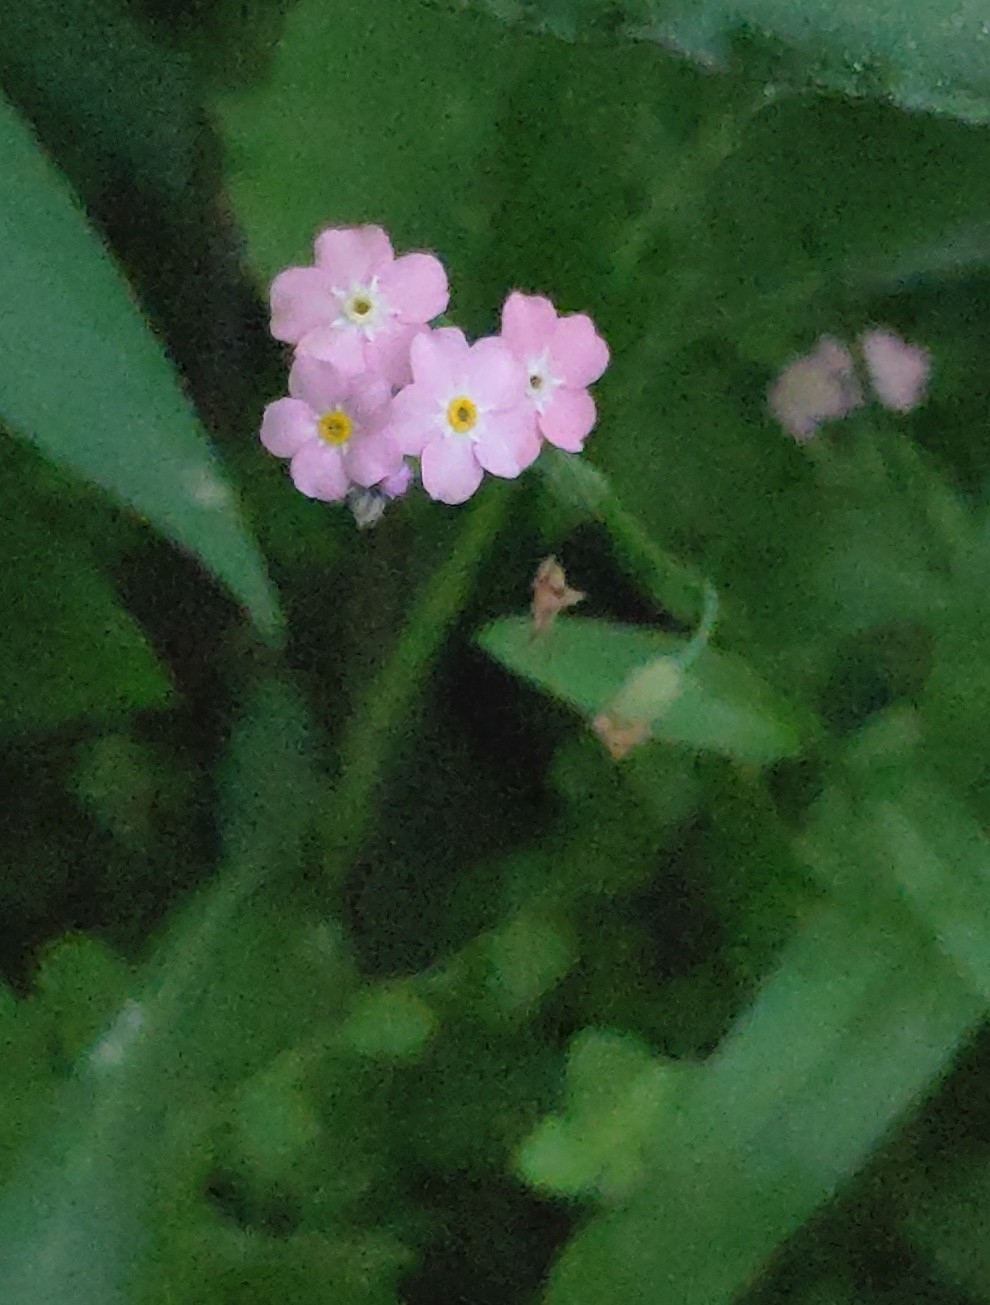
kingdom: Plantae
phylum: Tracheophyta
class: Magnoliopsida
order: Boraginales
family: Boraginaceae
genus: Myosotis
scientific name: Myosotis sylvatica
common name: Wood forget-me-not
